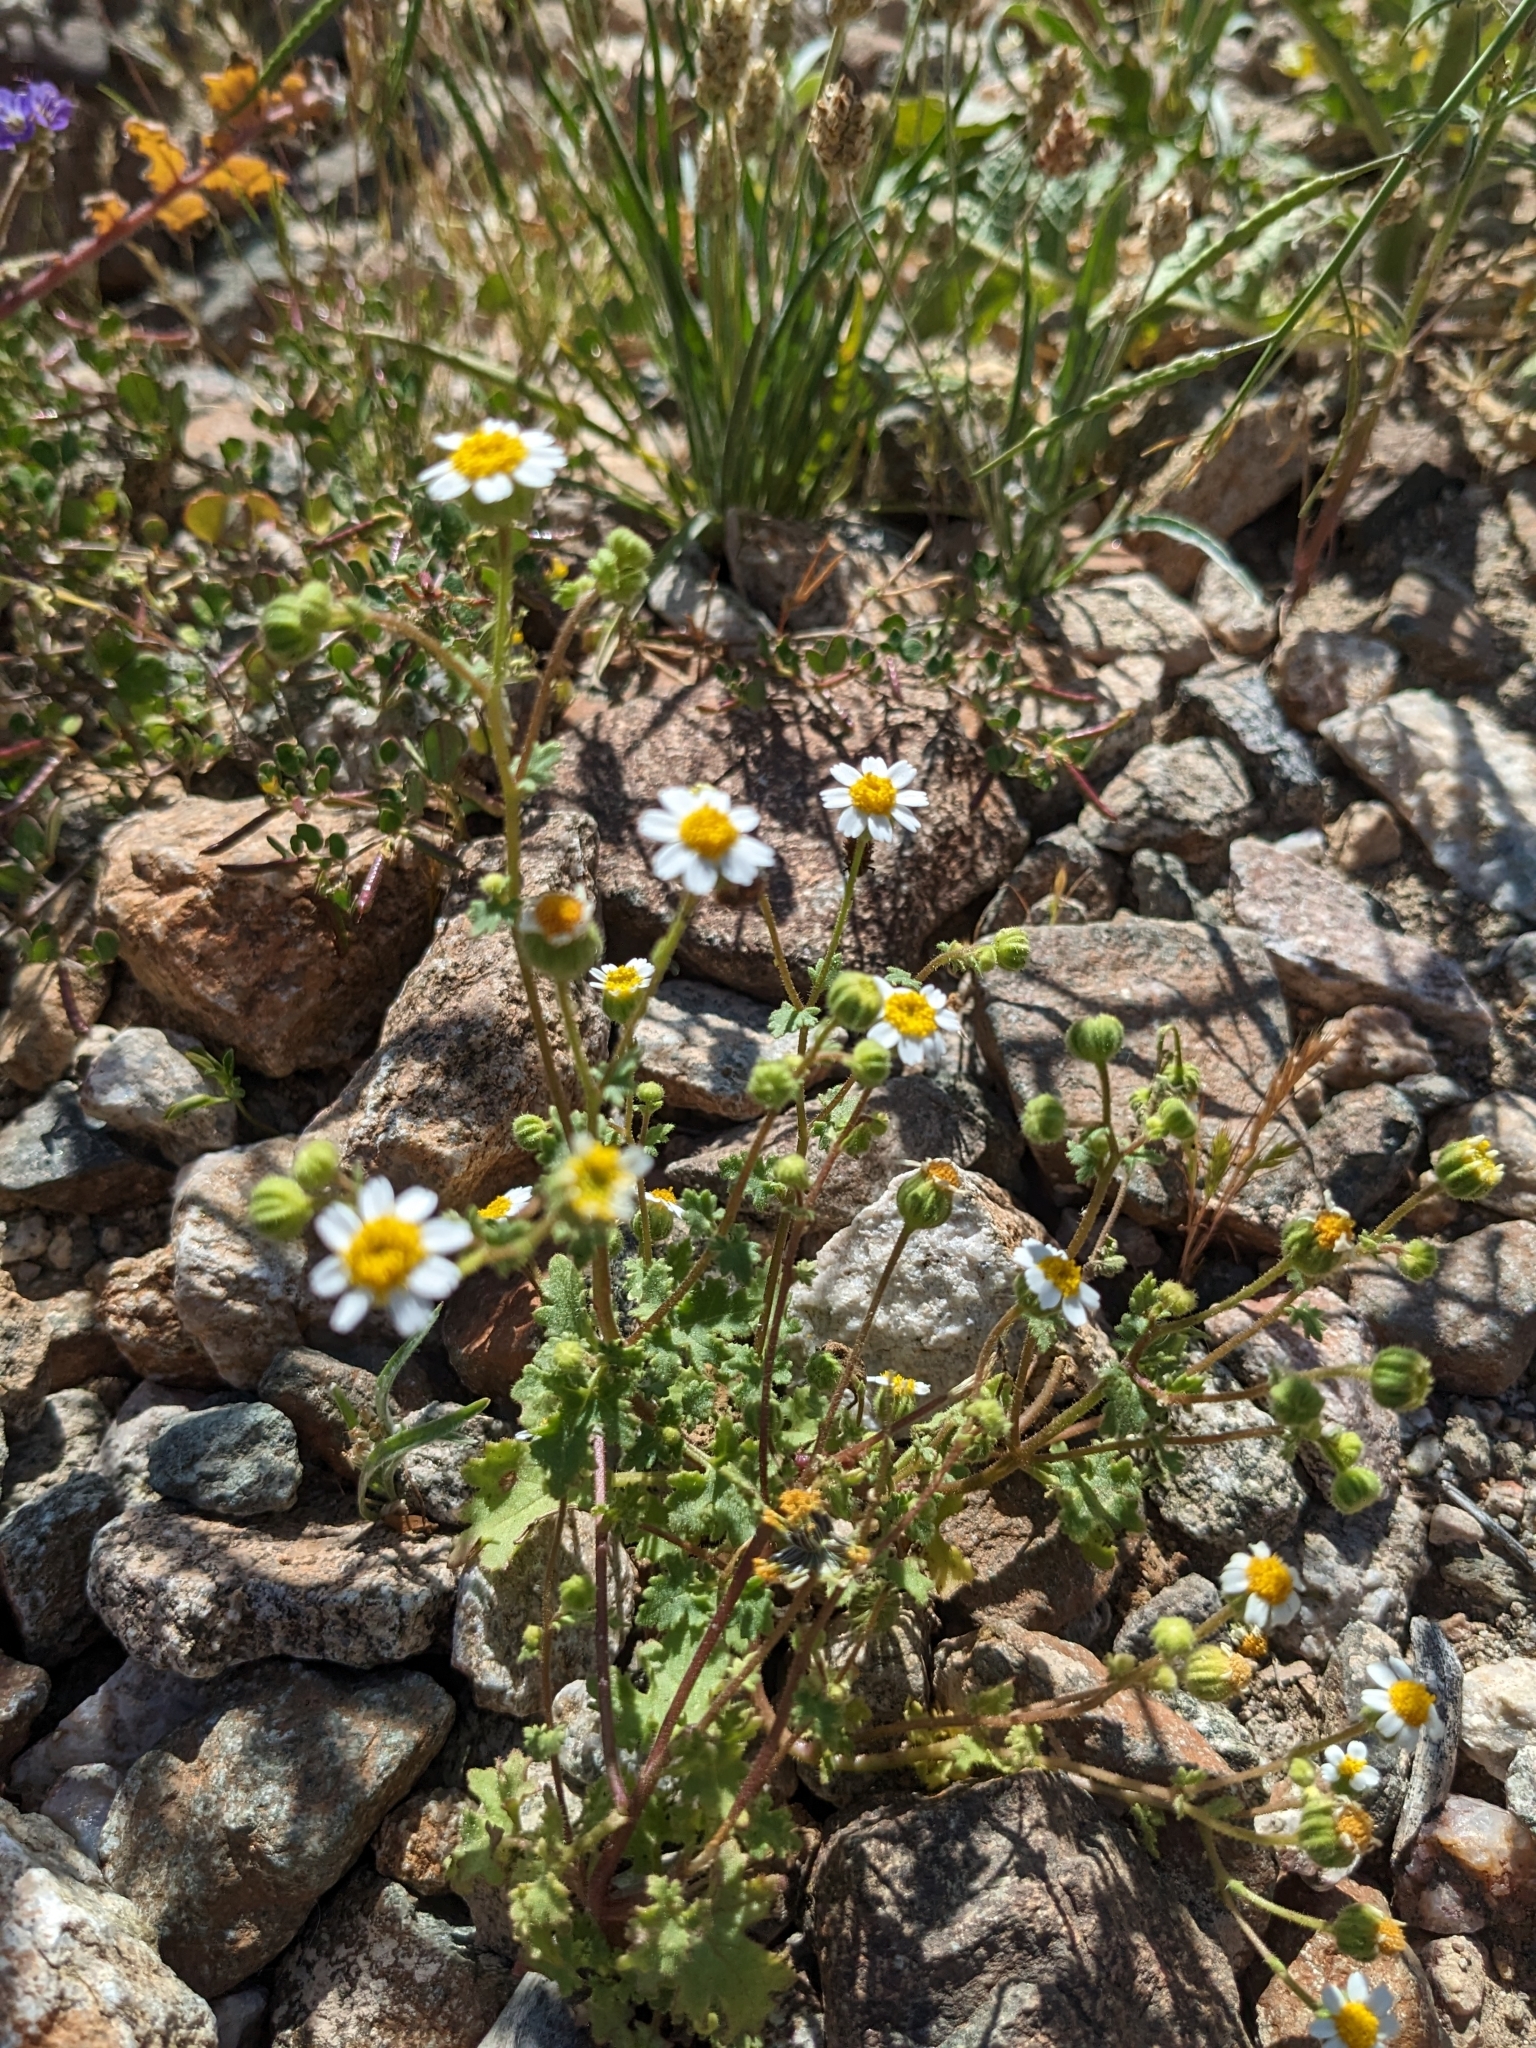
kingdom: Plantae
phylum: Tracheophyta
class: Magnoliopsida
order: Asterales
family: Asteraceae
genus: Laphamia
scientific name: Laphamia emoryi
